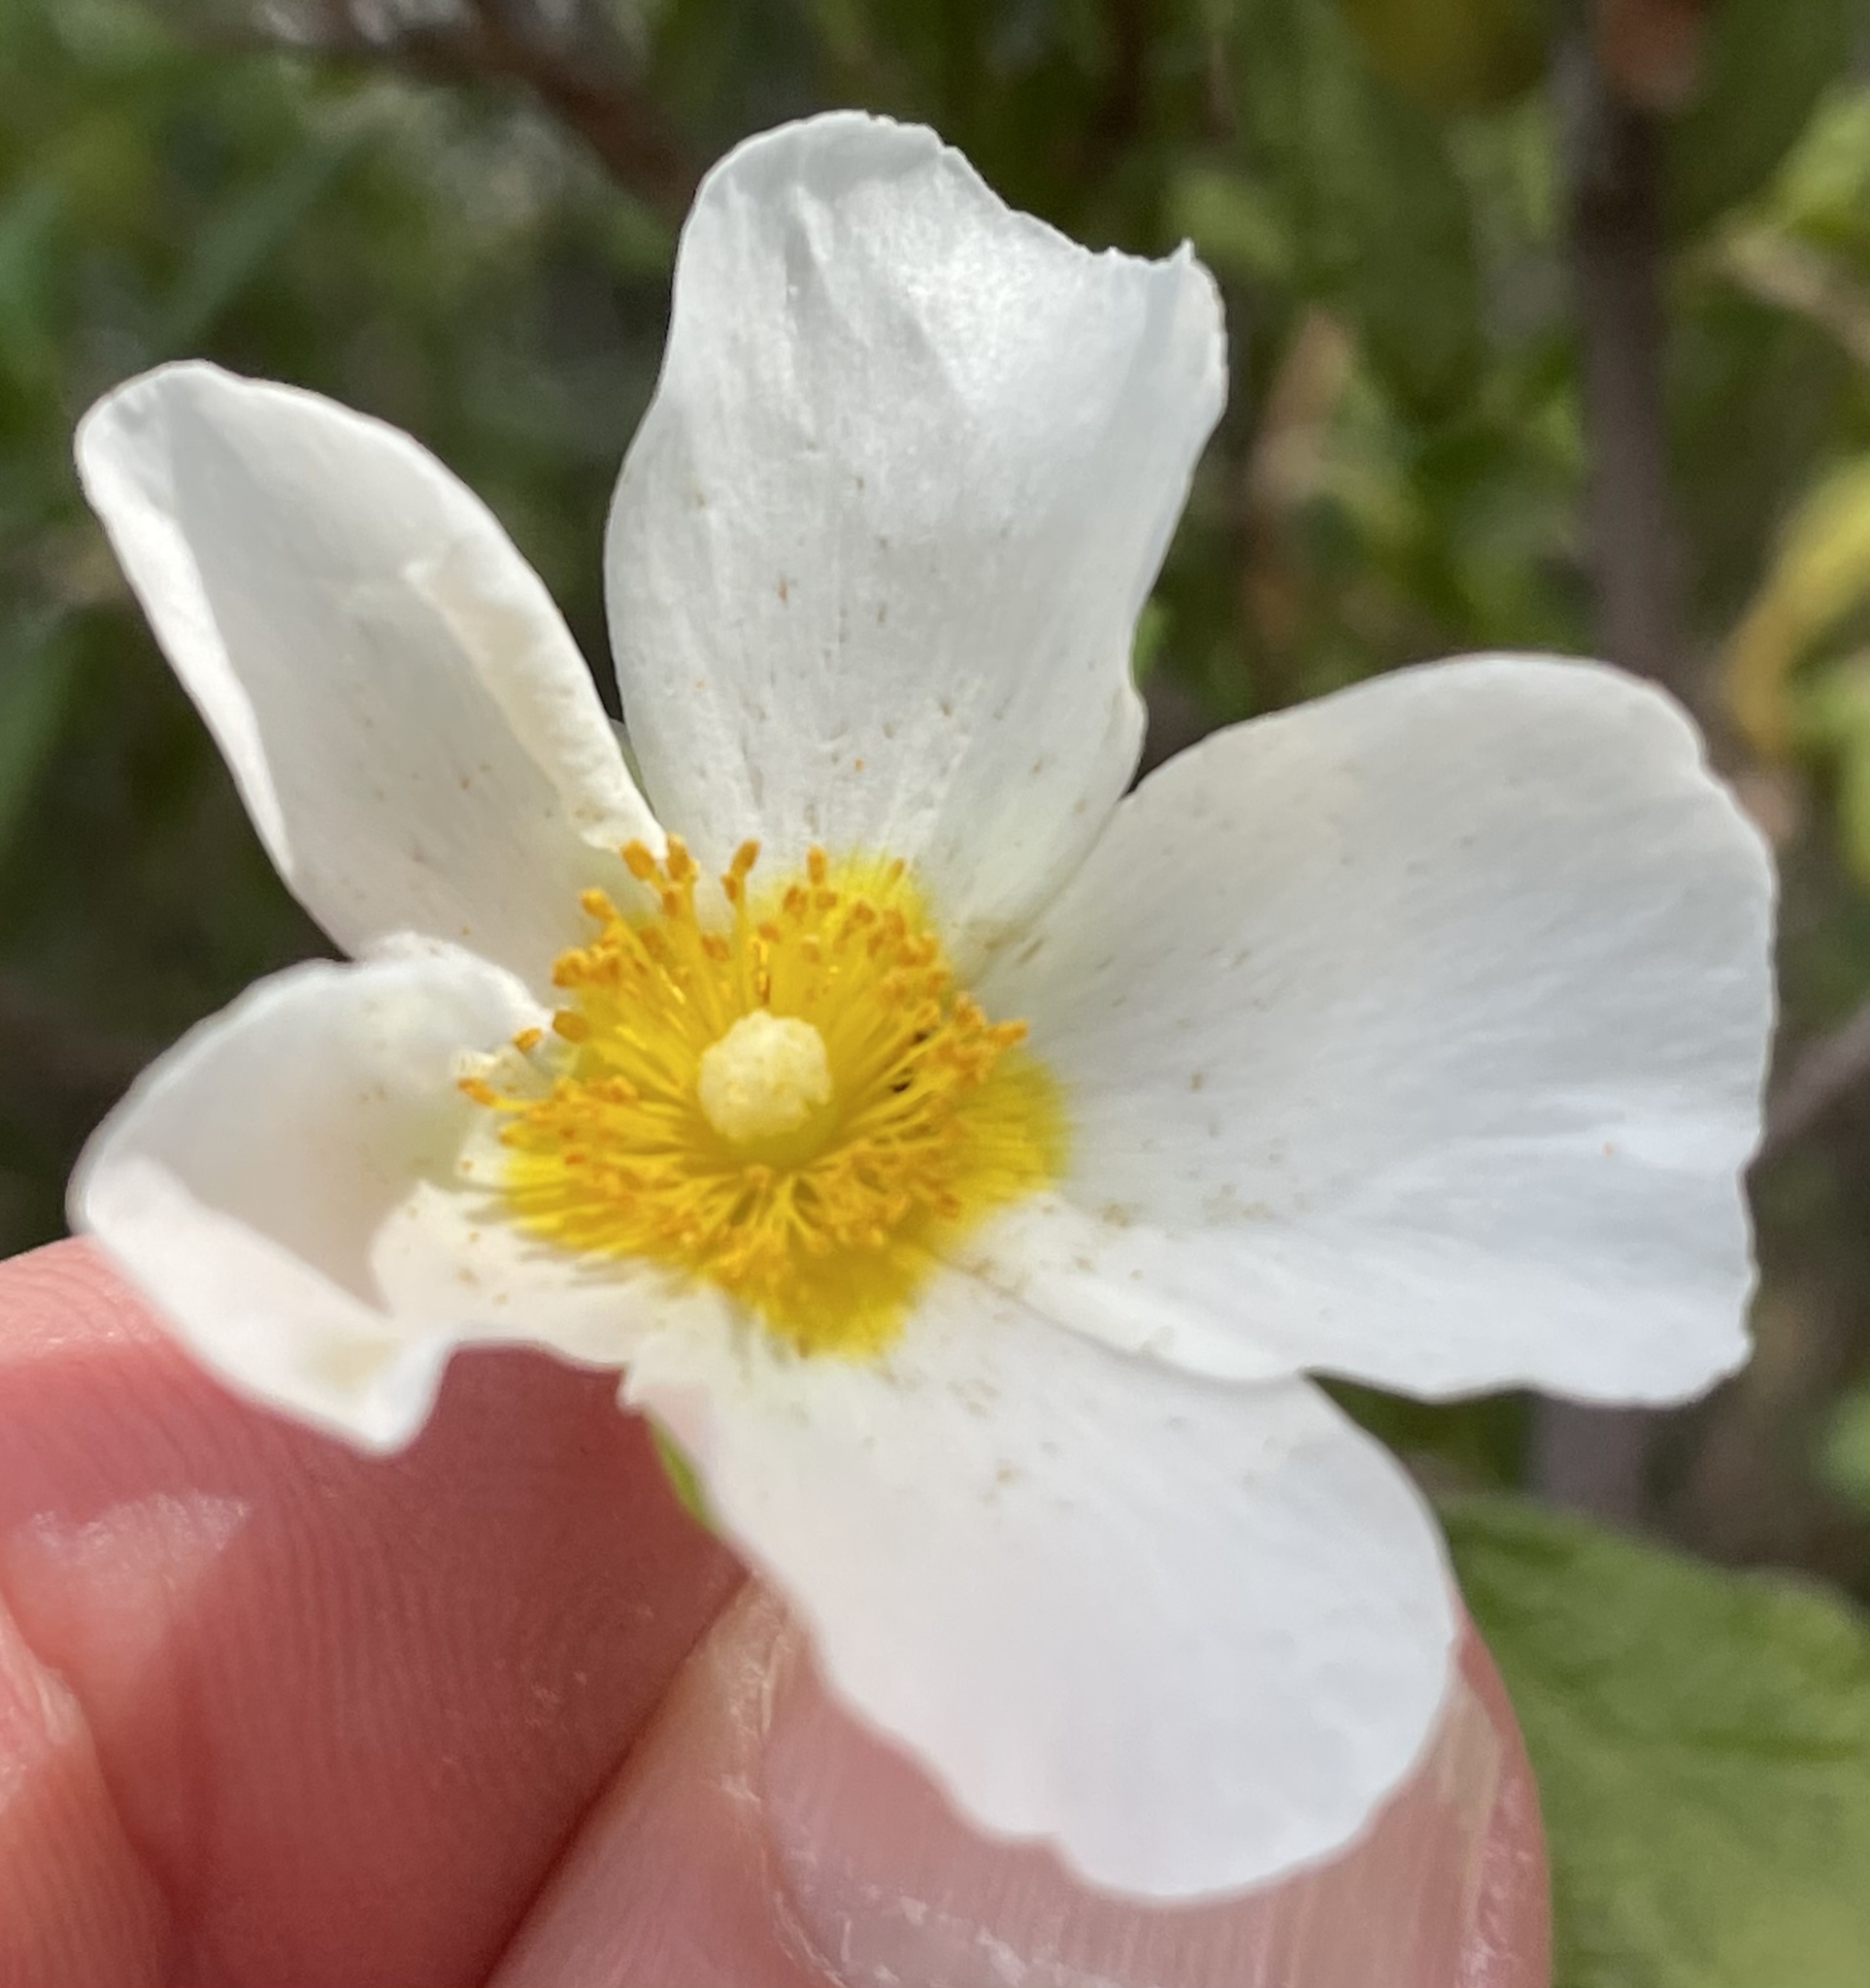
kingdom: Plantae
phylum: Tracheophyta
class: Magnoliopsida
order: Malvales
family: Cistaceae
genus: Cistus
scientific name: Cistus salviifolius
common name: Salvia cistus
